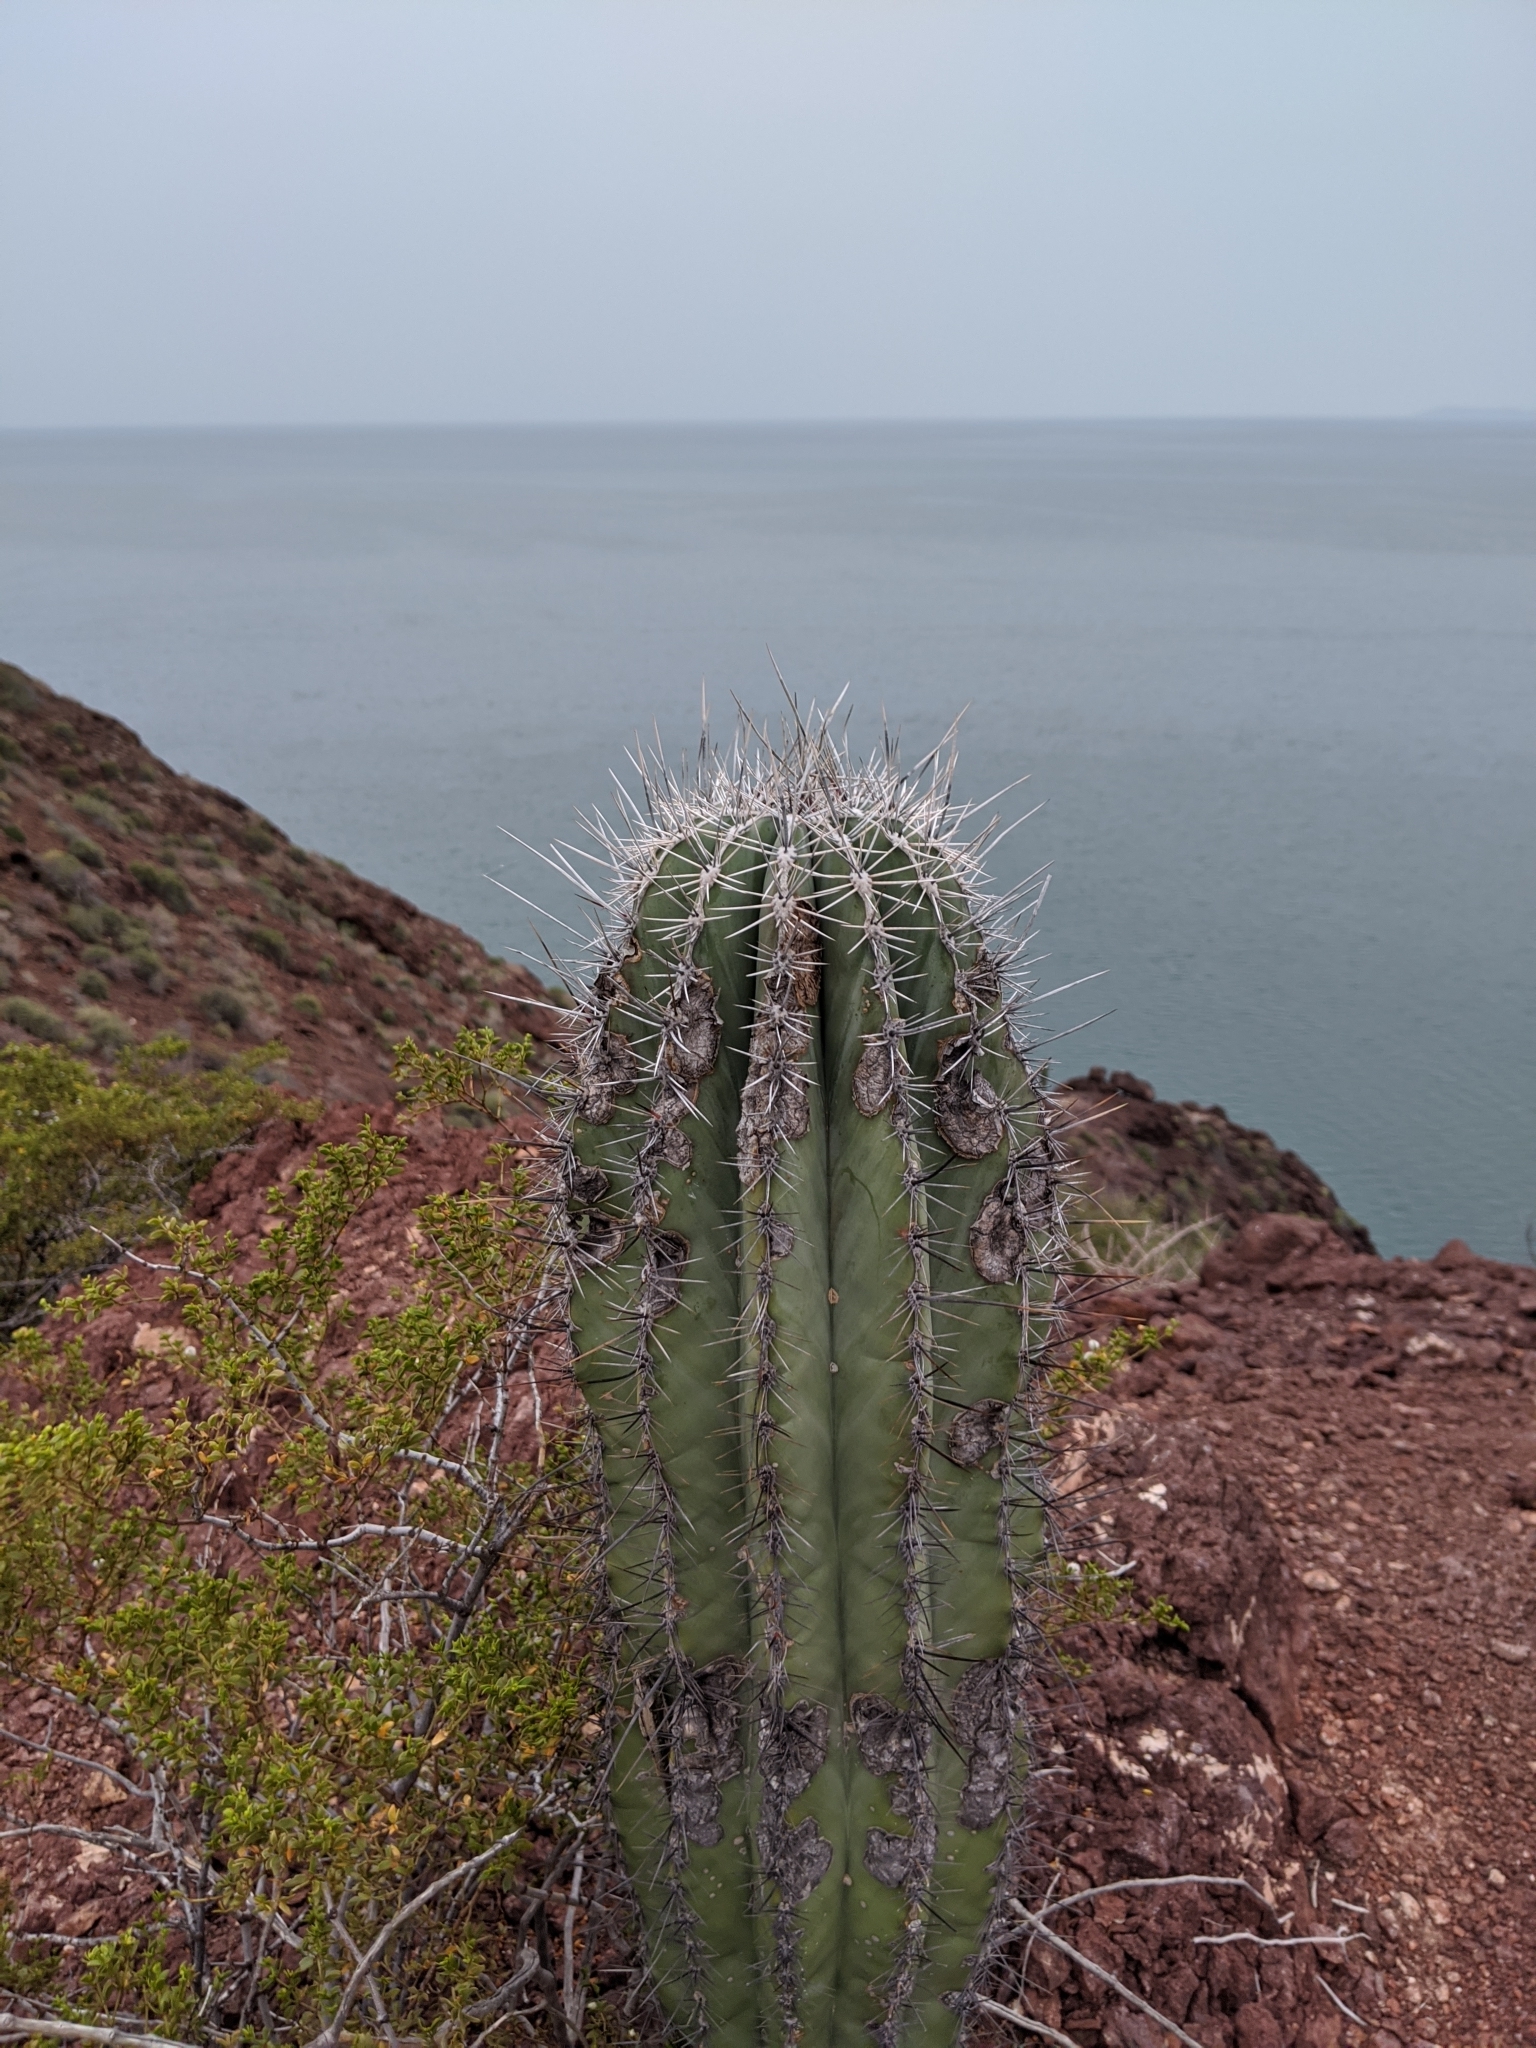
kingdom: Plantae
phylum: Tracheophyta
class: Magnoliopsida
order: Caryophyllales
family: Cactaceae
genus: Pachycereus
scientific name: Pachycereus pringlei
